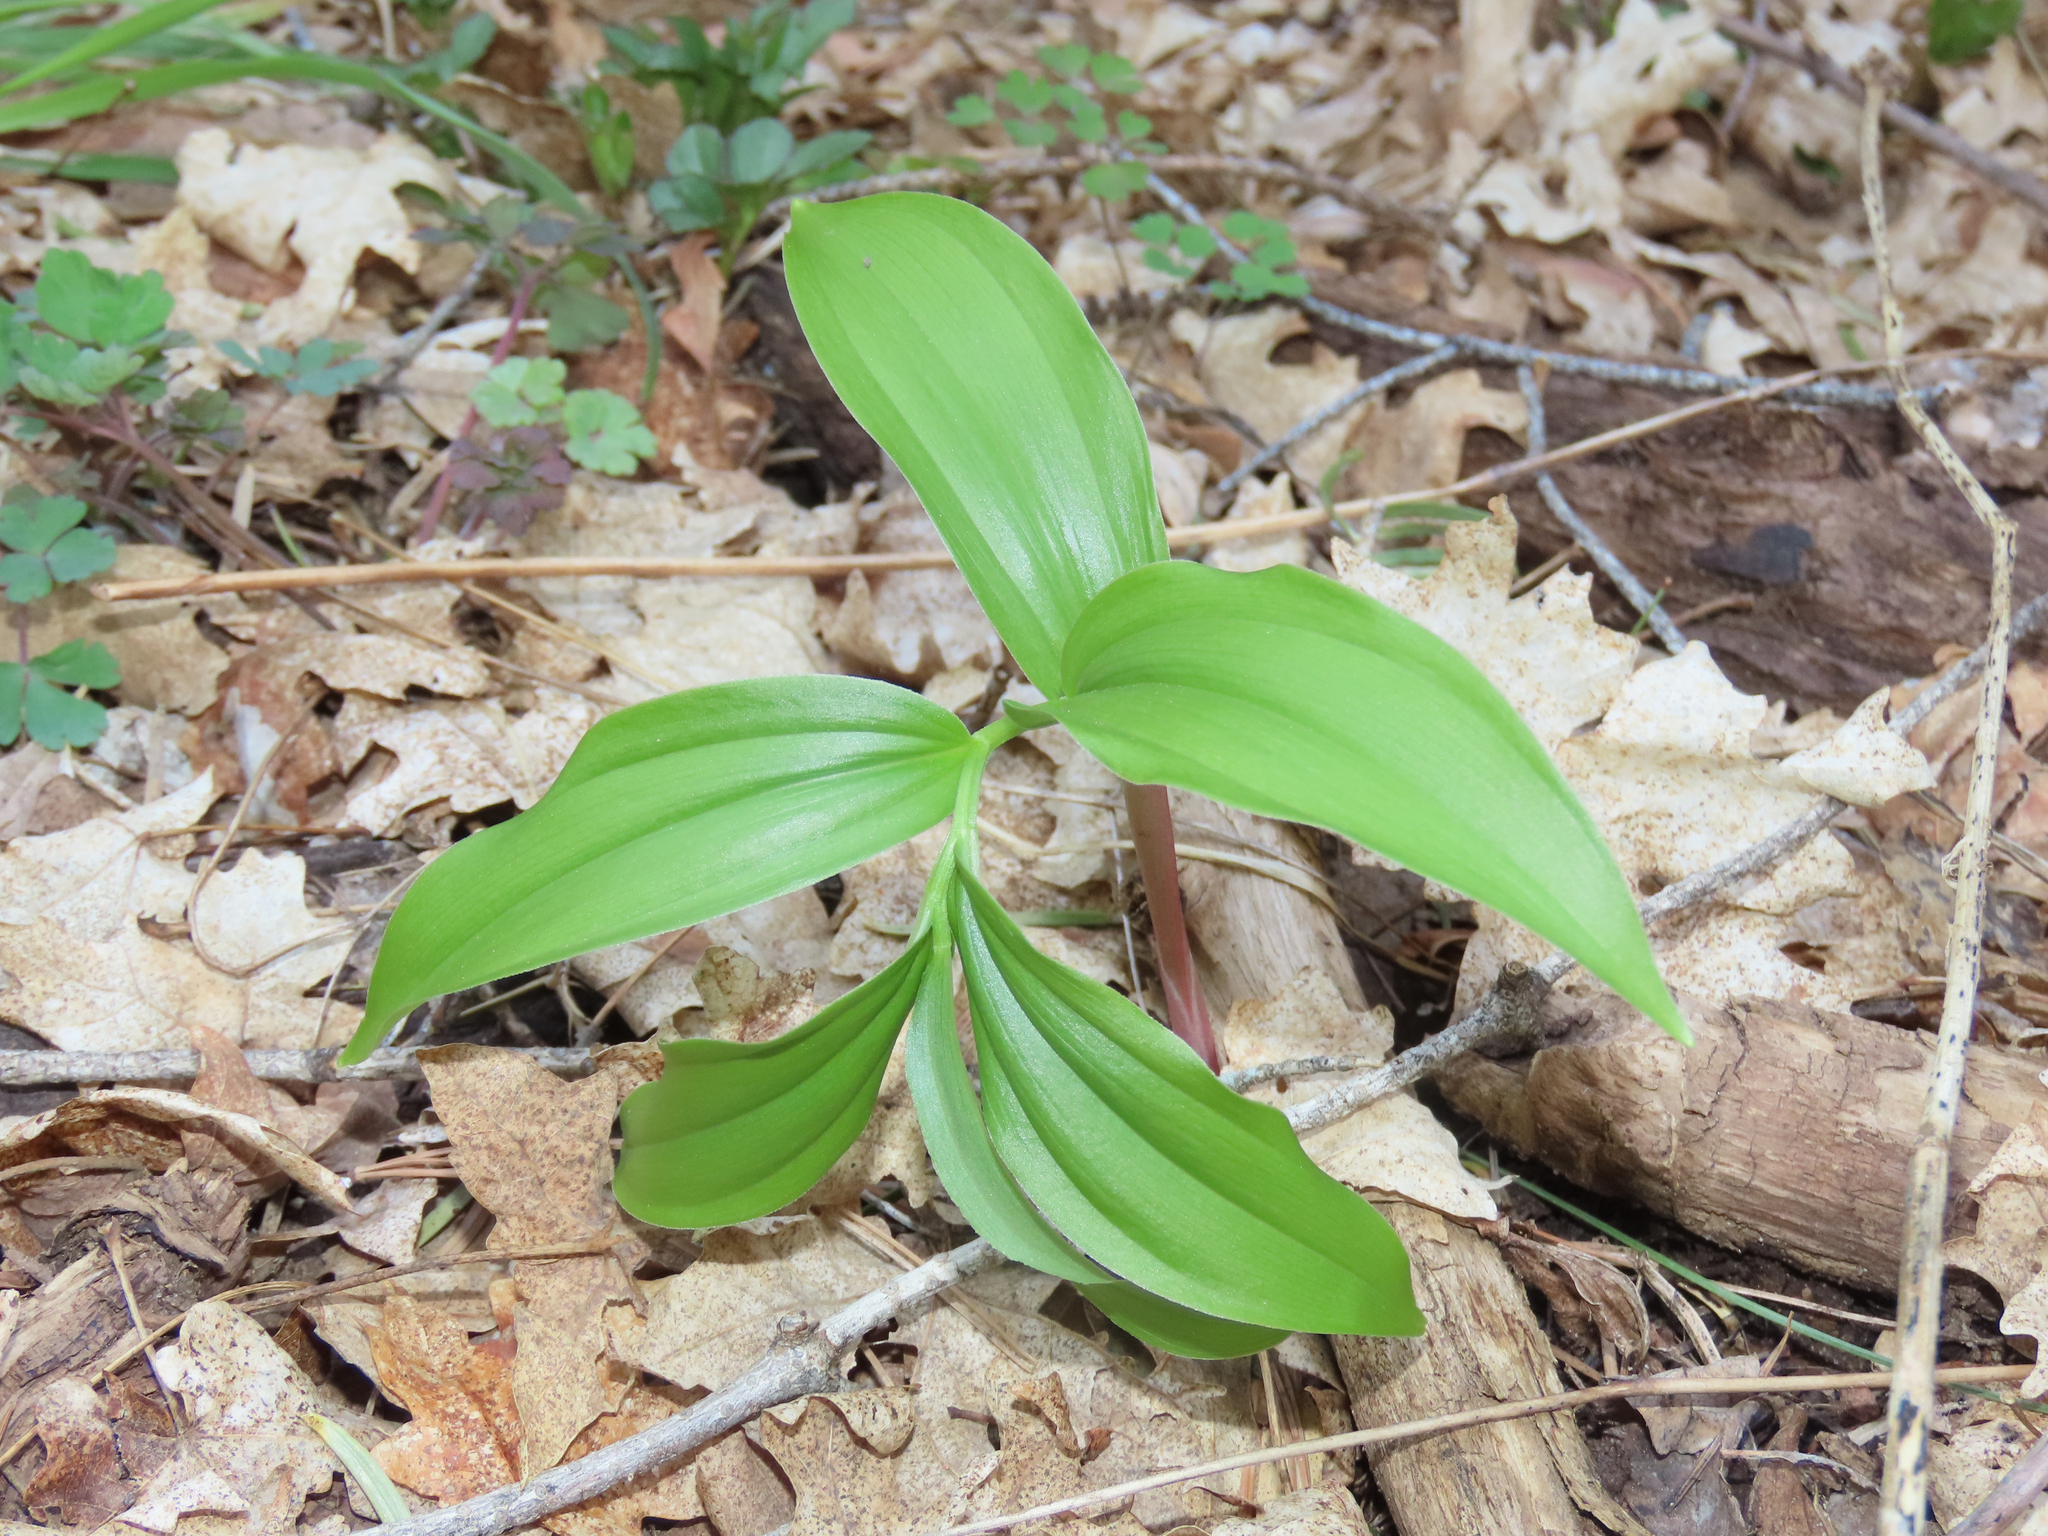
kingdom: Plantae
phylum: Tracheophyta
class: Liliopsida
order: Asparagales
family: Asparagaceae
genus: Maianthemum
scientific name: Maianthemum racemosum
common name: False spikenard
